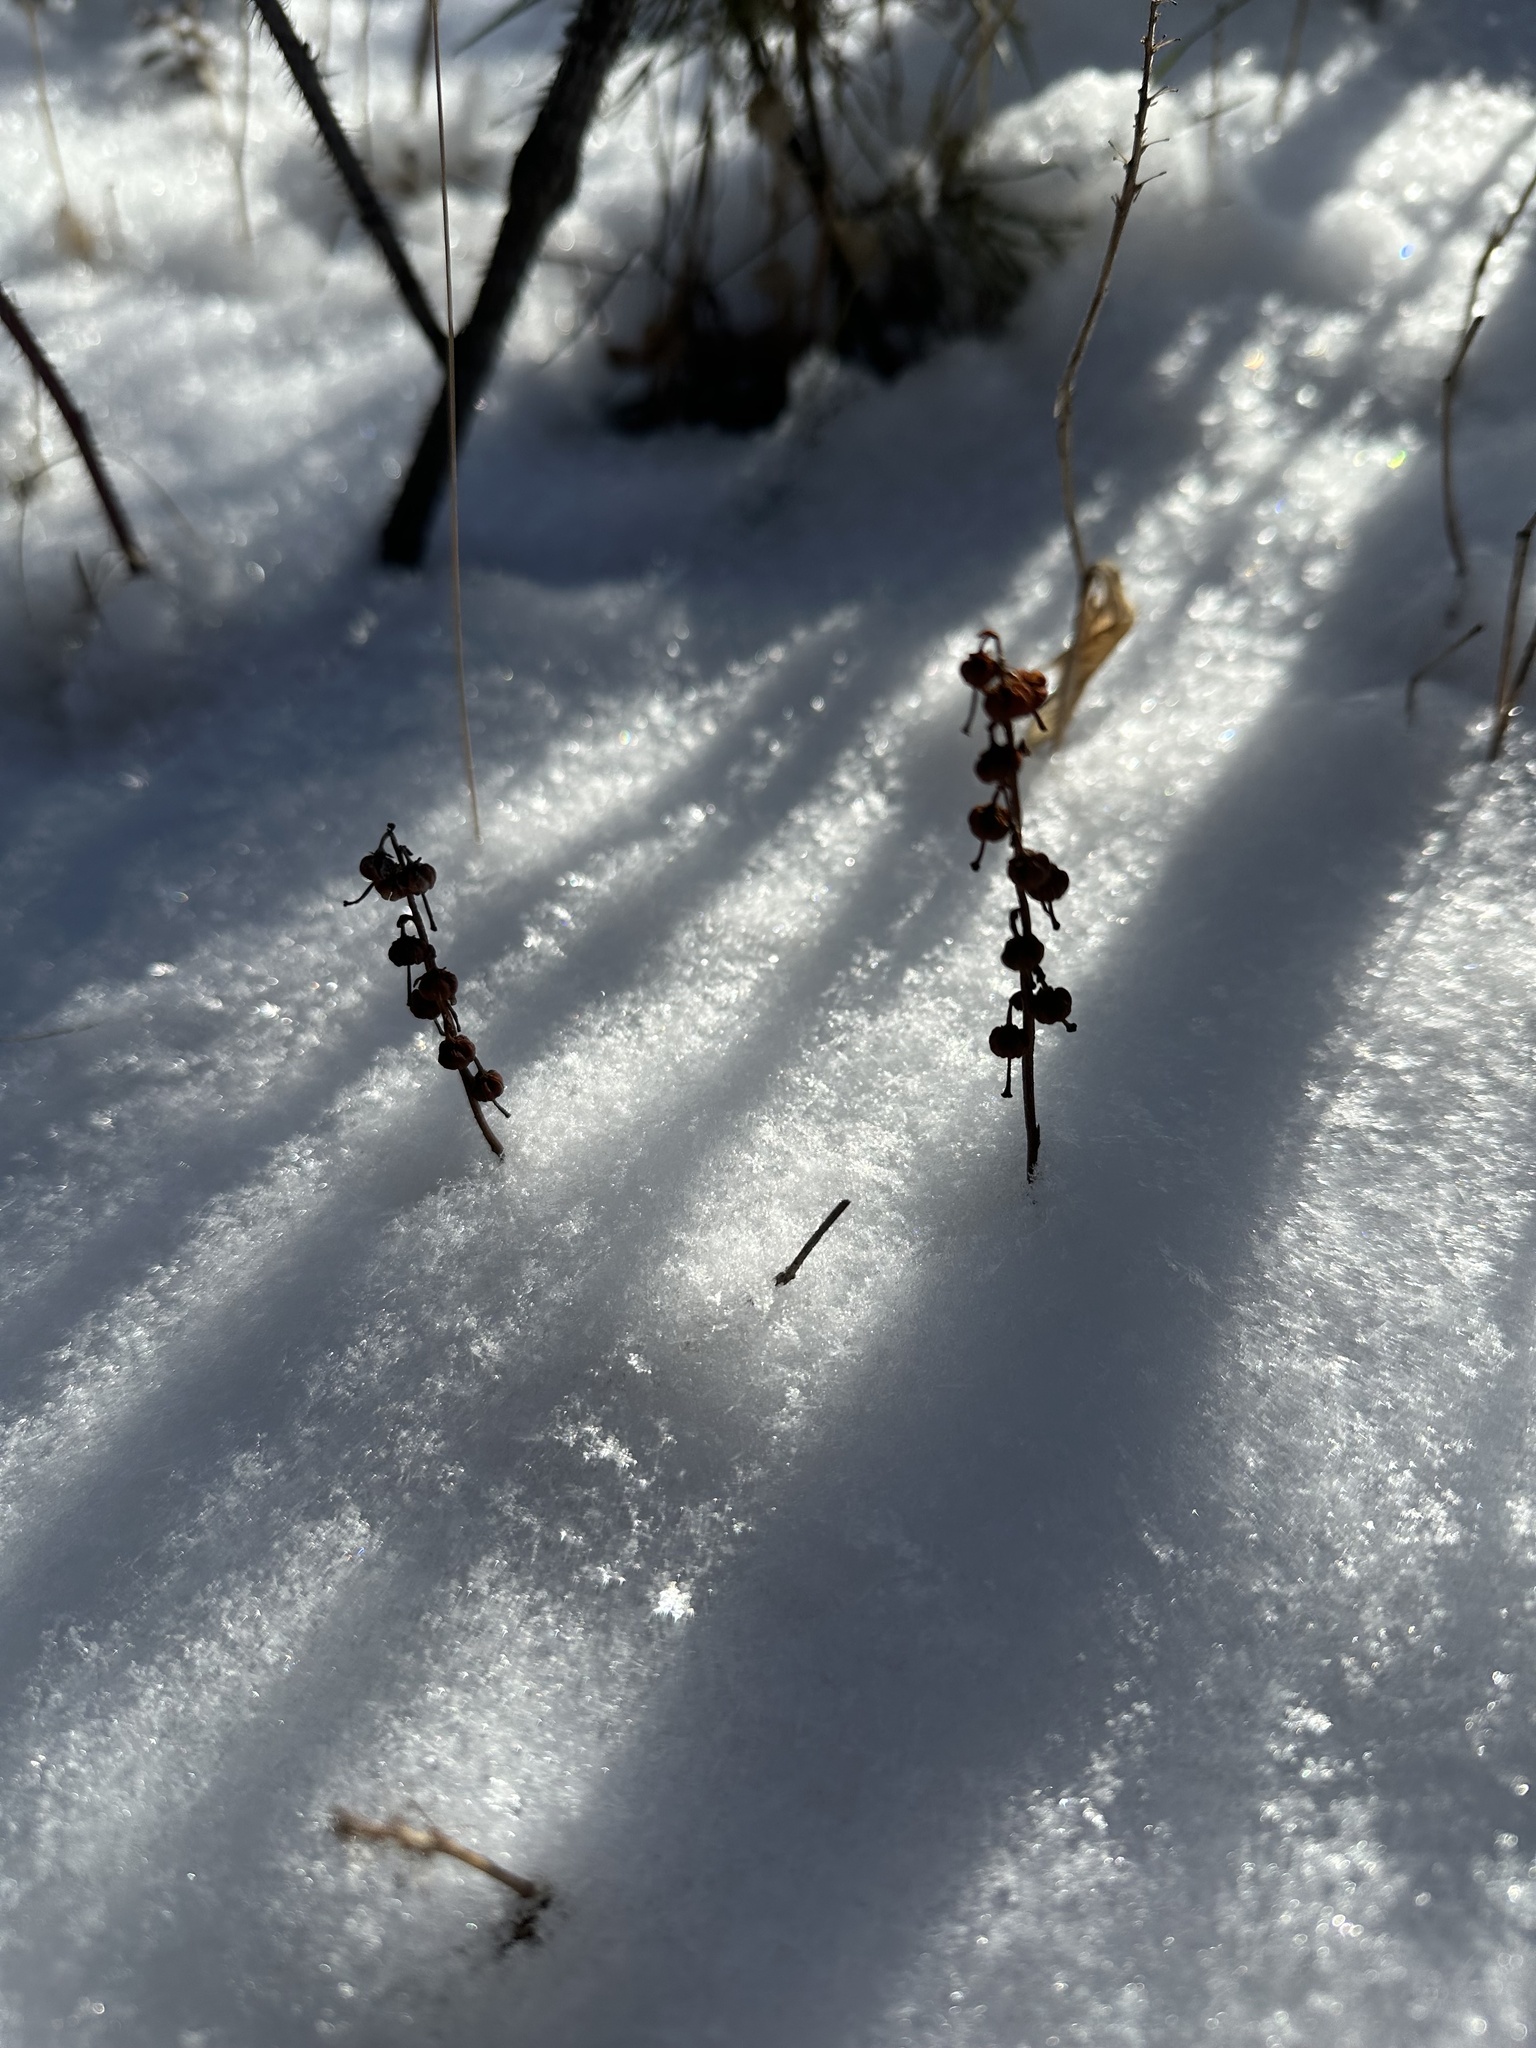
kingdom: Plantae
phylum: Tracheophyta
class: Magnoliopsida
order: Ericales
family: Ericaceae
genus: Orthilia
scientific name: Orthilia secunda
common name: One-sided orthilia
